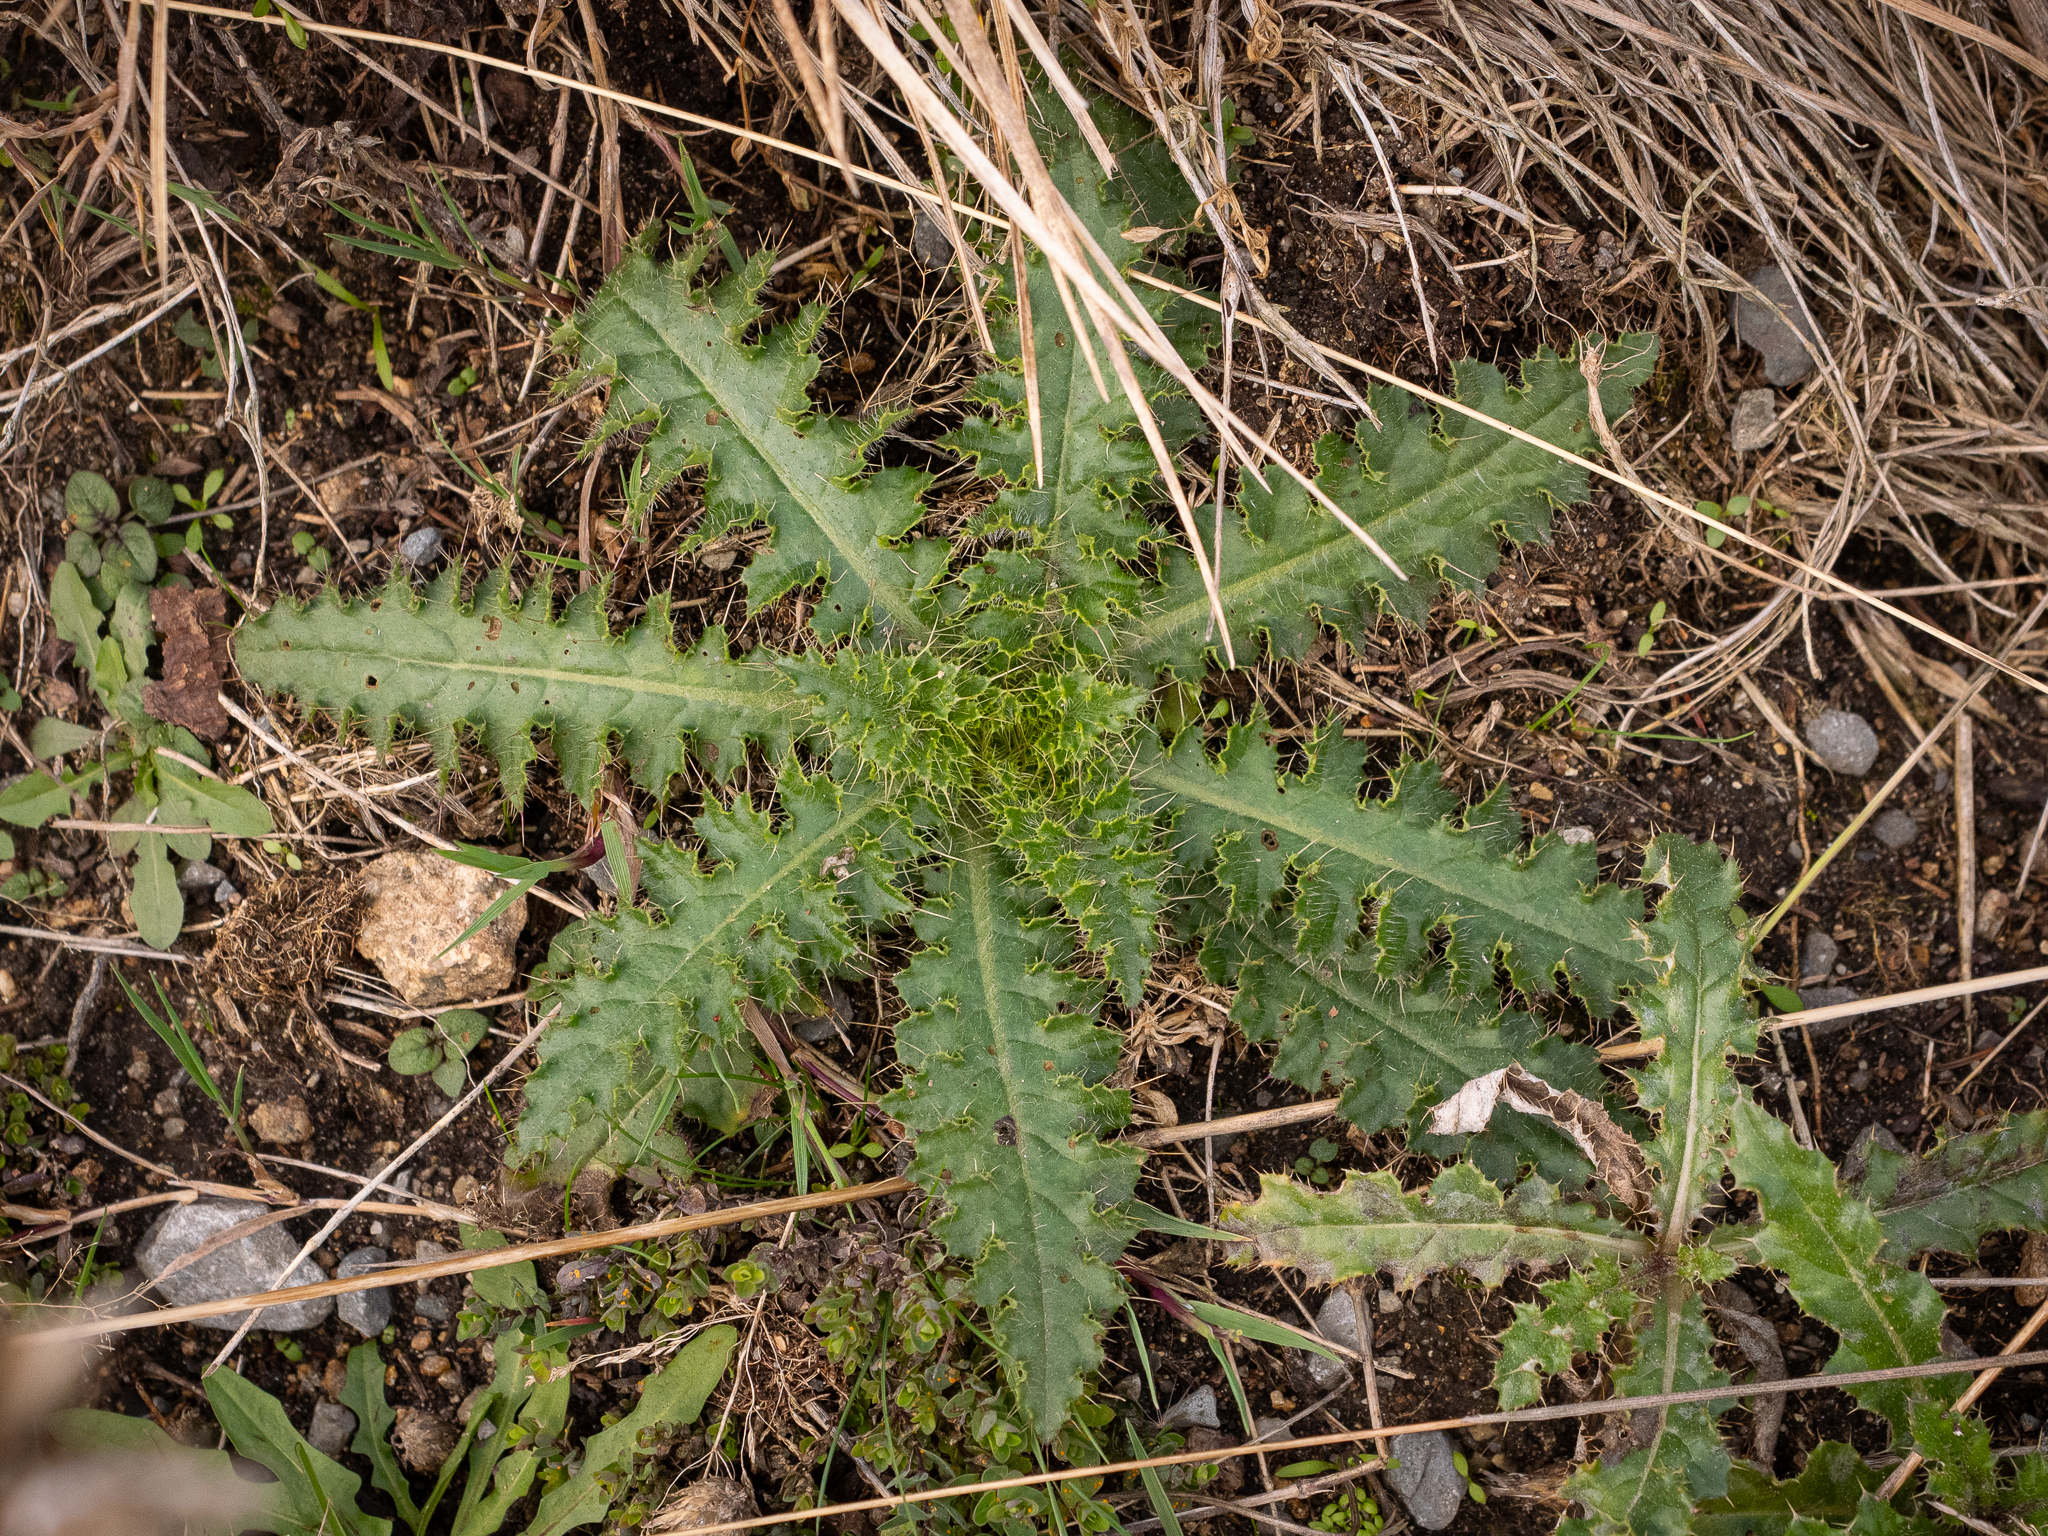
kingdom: Plantae
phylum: Tracheophyta
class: Magnoliopsida
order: Asterales
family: Asteraceae
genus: Cirsium
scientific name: Cirsium palustre
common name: Marsh thistle
